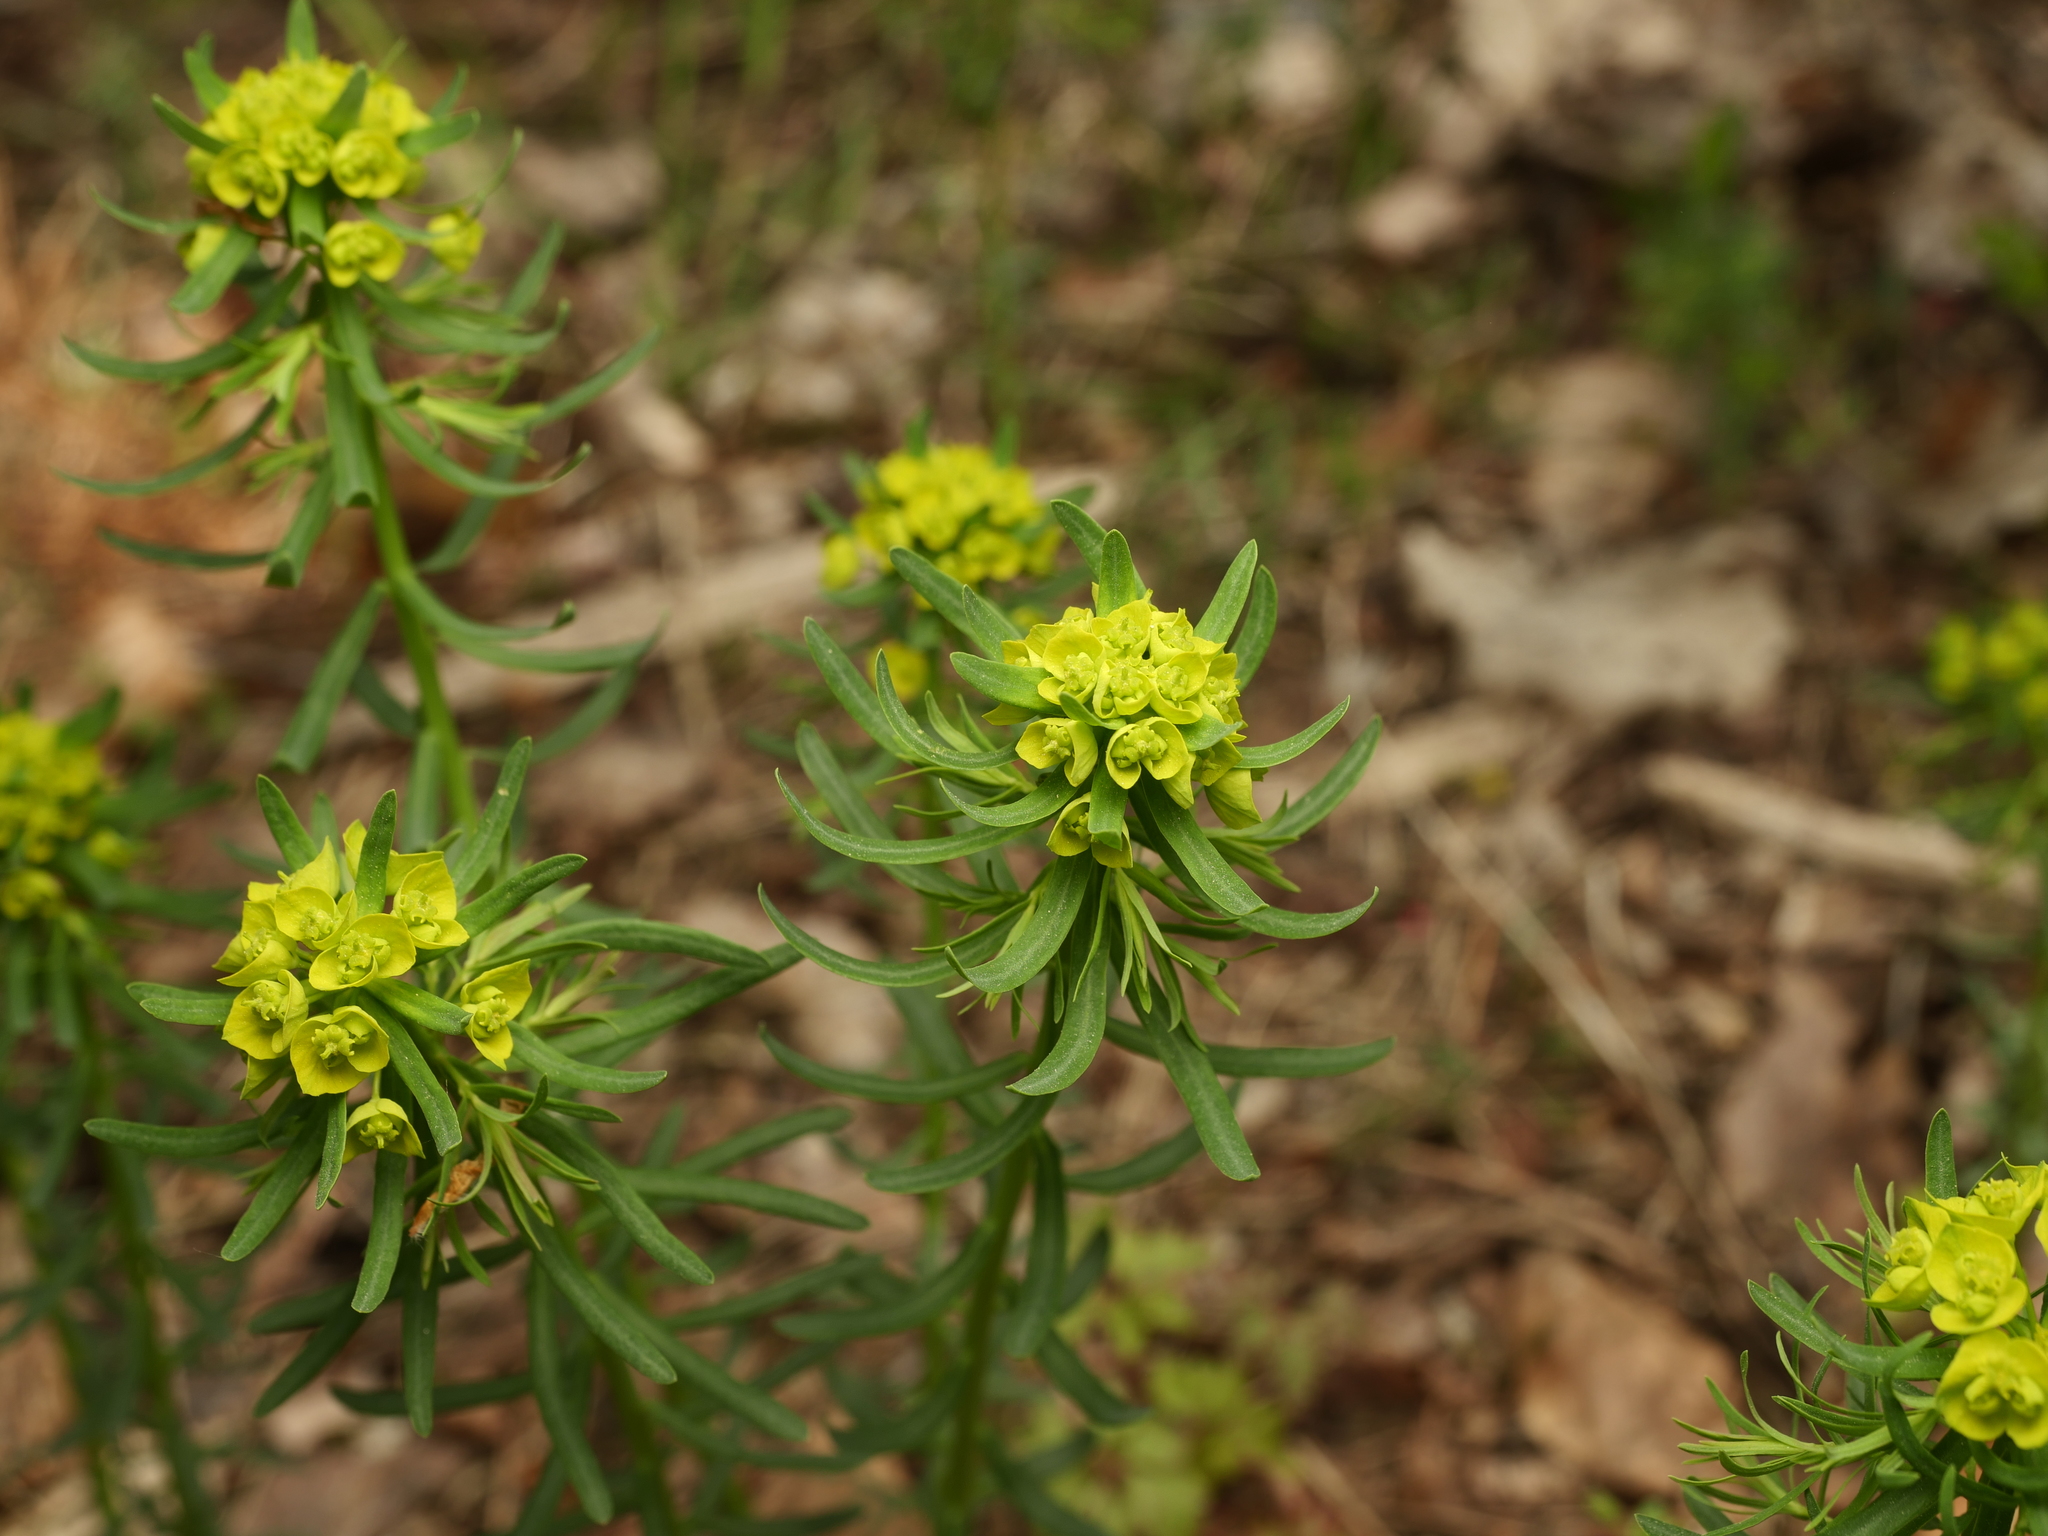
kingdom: Plantae
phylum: Tracheophyta
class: Magnoliopsida
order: Malpighiales
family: Euphorbiaceae
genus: Euphorbia
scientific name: Euphorbia cyparissias
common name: Cypress spurge
